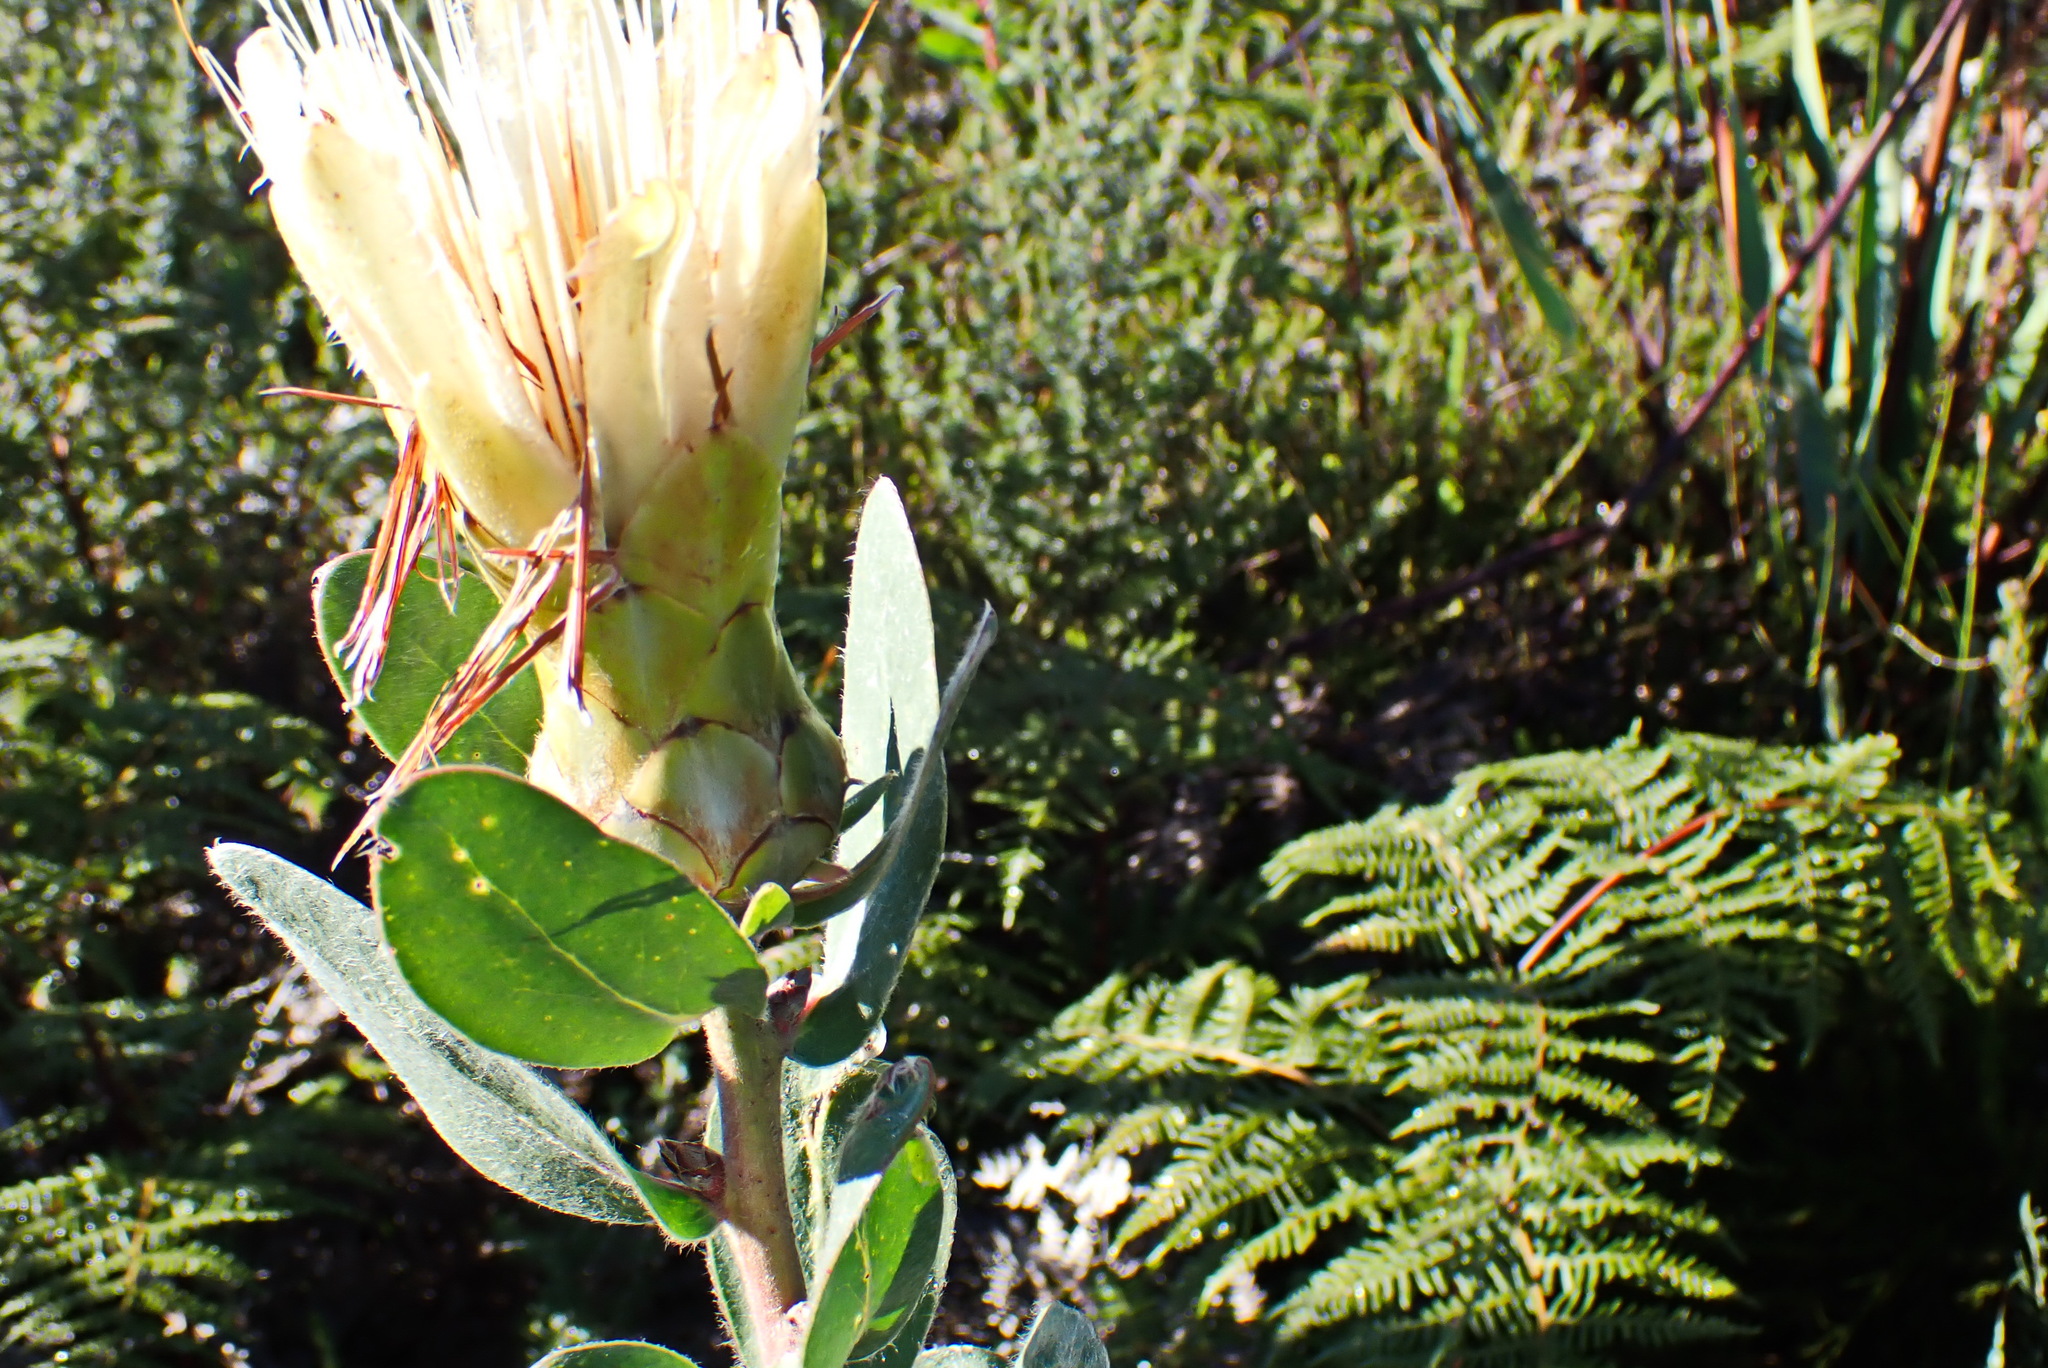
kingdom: Plantae
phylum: Tracheophyta
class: Magnoliopsida
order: Proteales
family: Proteaceae
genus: Protea
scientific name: Protea
